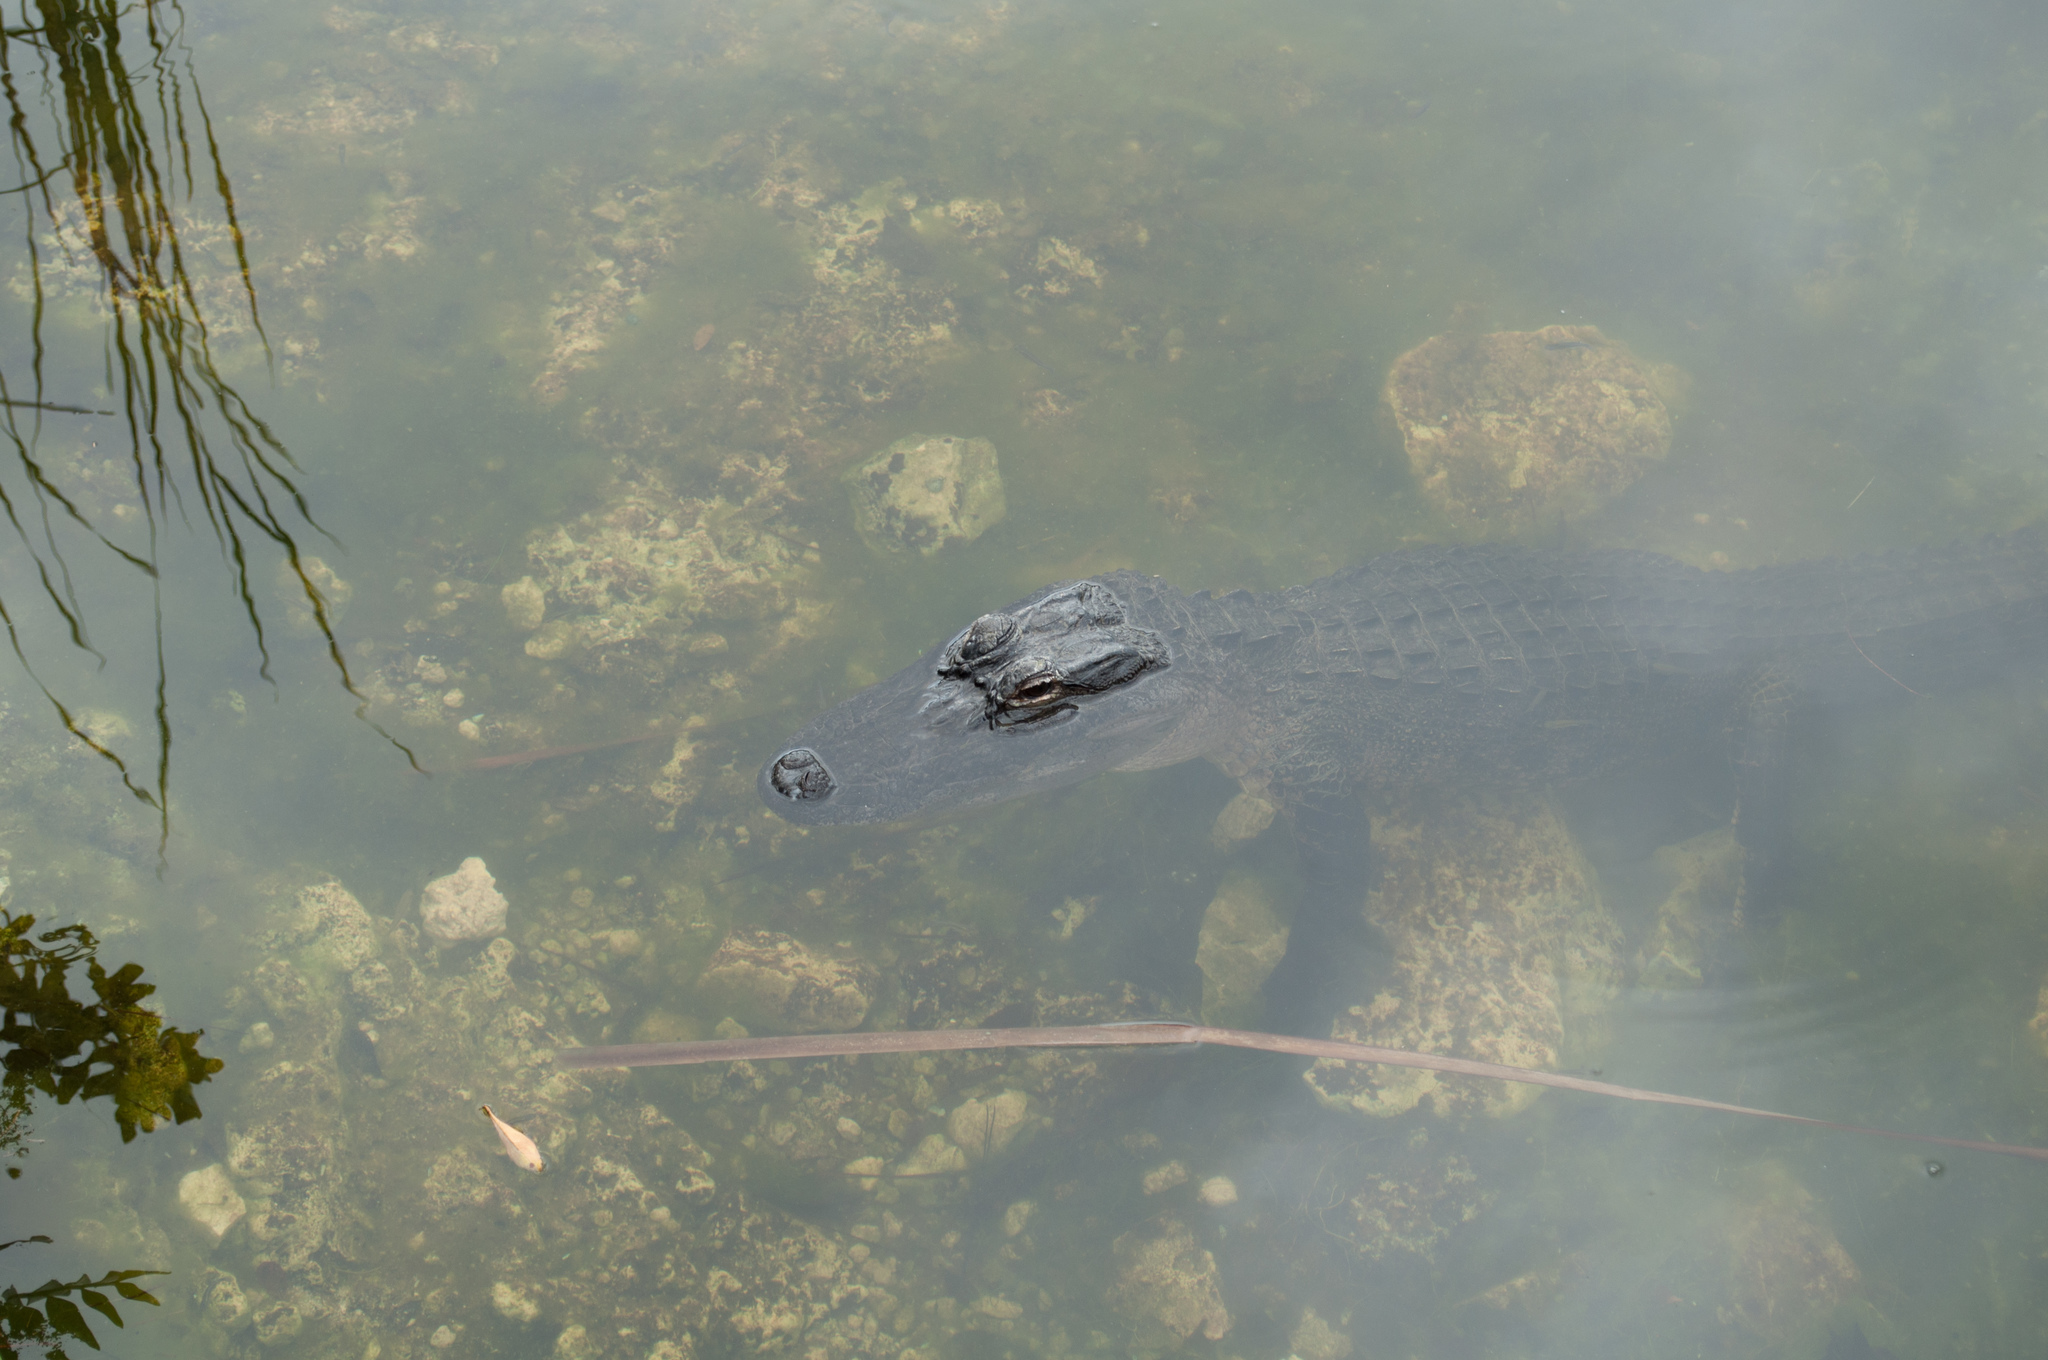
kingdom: Animalia
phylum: Chordata
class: Crocodylia
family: Alligatoridae
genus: Alligator
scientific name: Alligator mississippiensis
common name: American alligator
